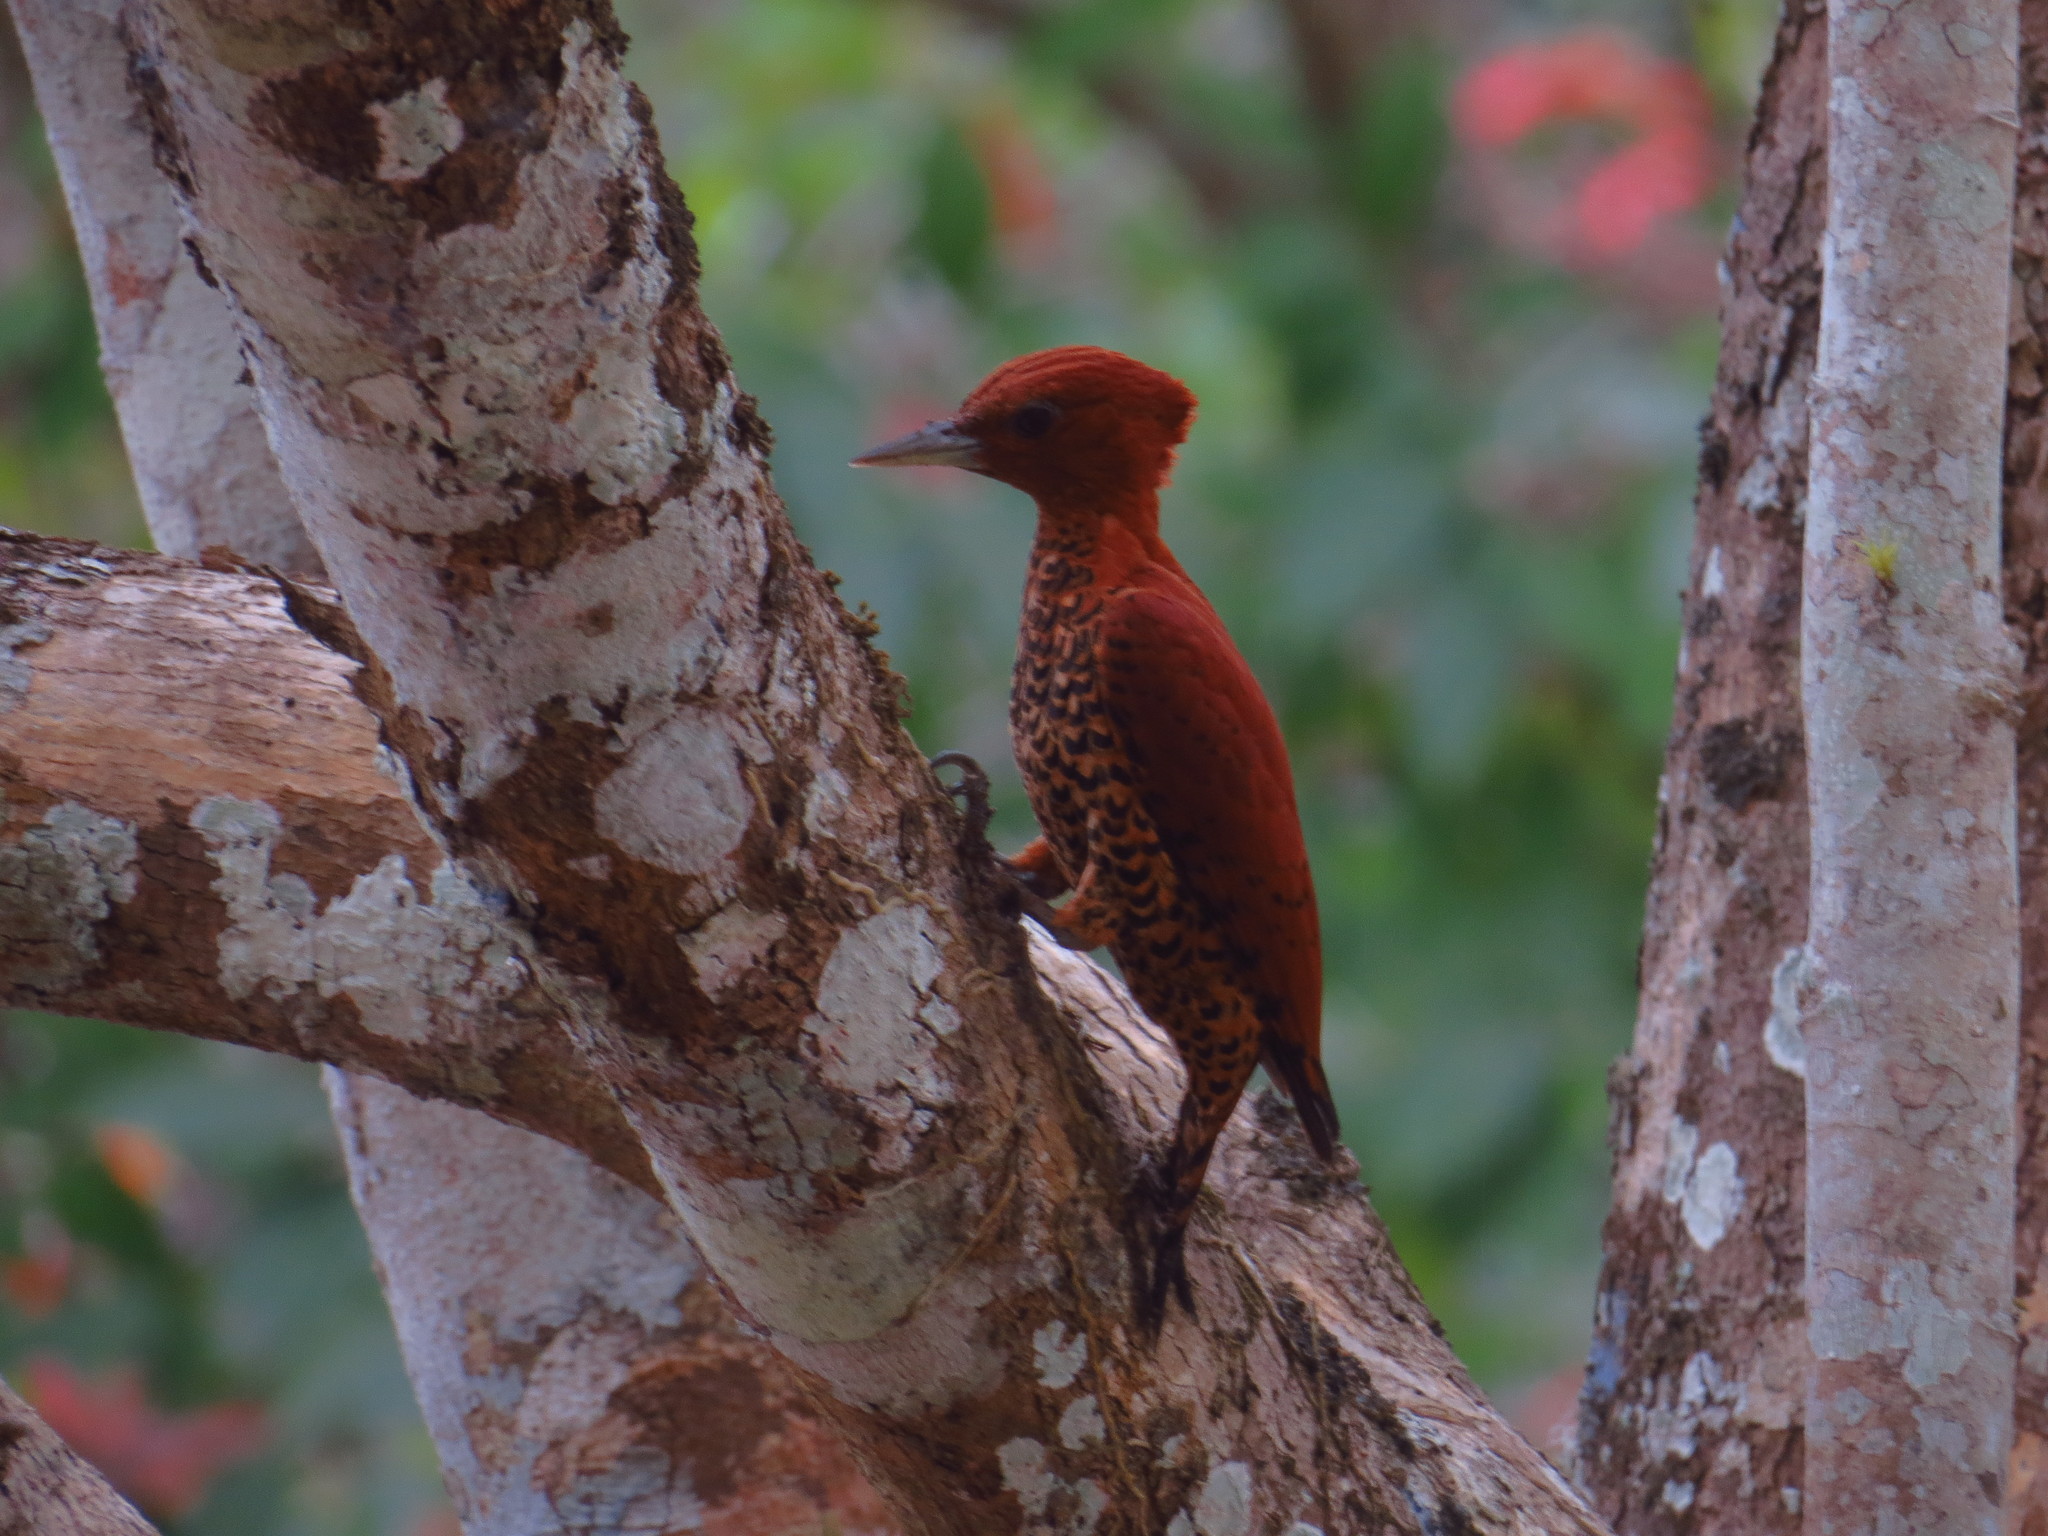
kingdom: Animalia
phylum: Chordata
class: Aves
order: Piciformes
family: Picidae
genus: Celeus
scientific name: Celeus loricatus
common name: Cinnamon woodpecker
